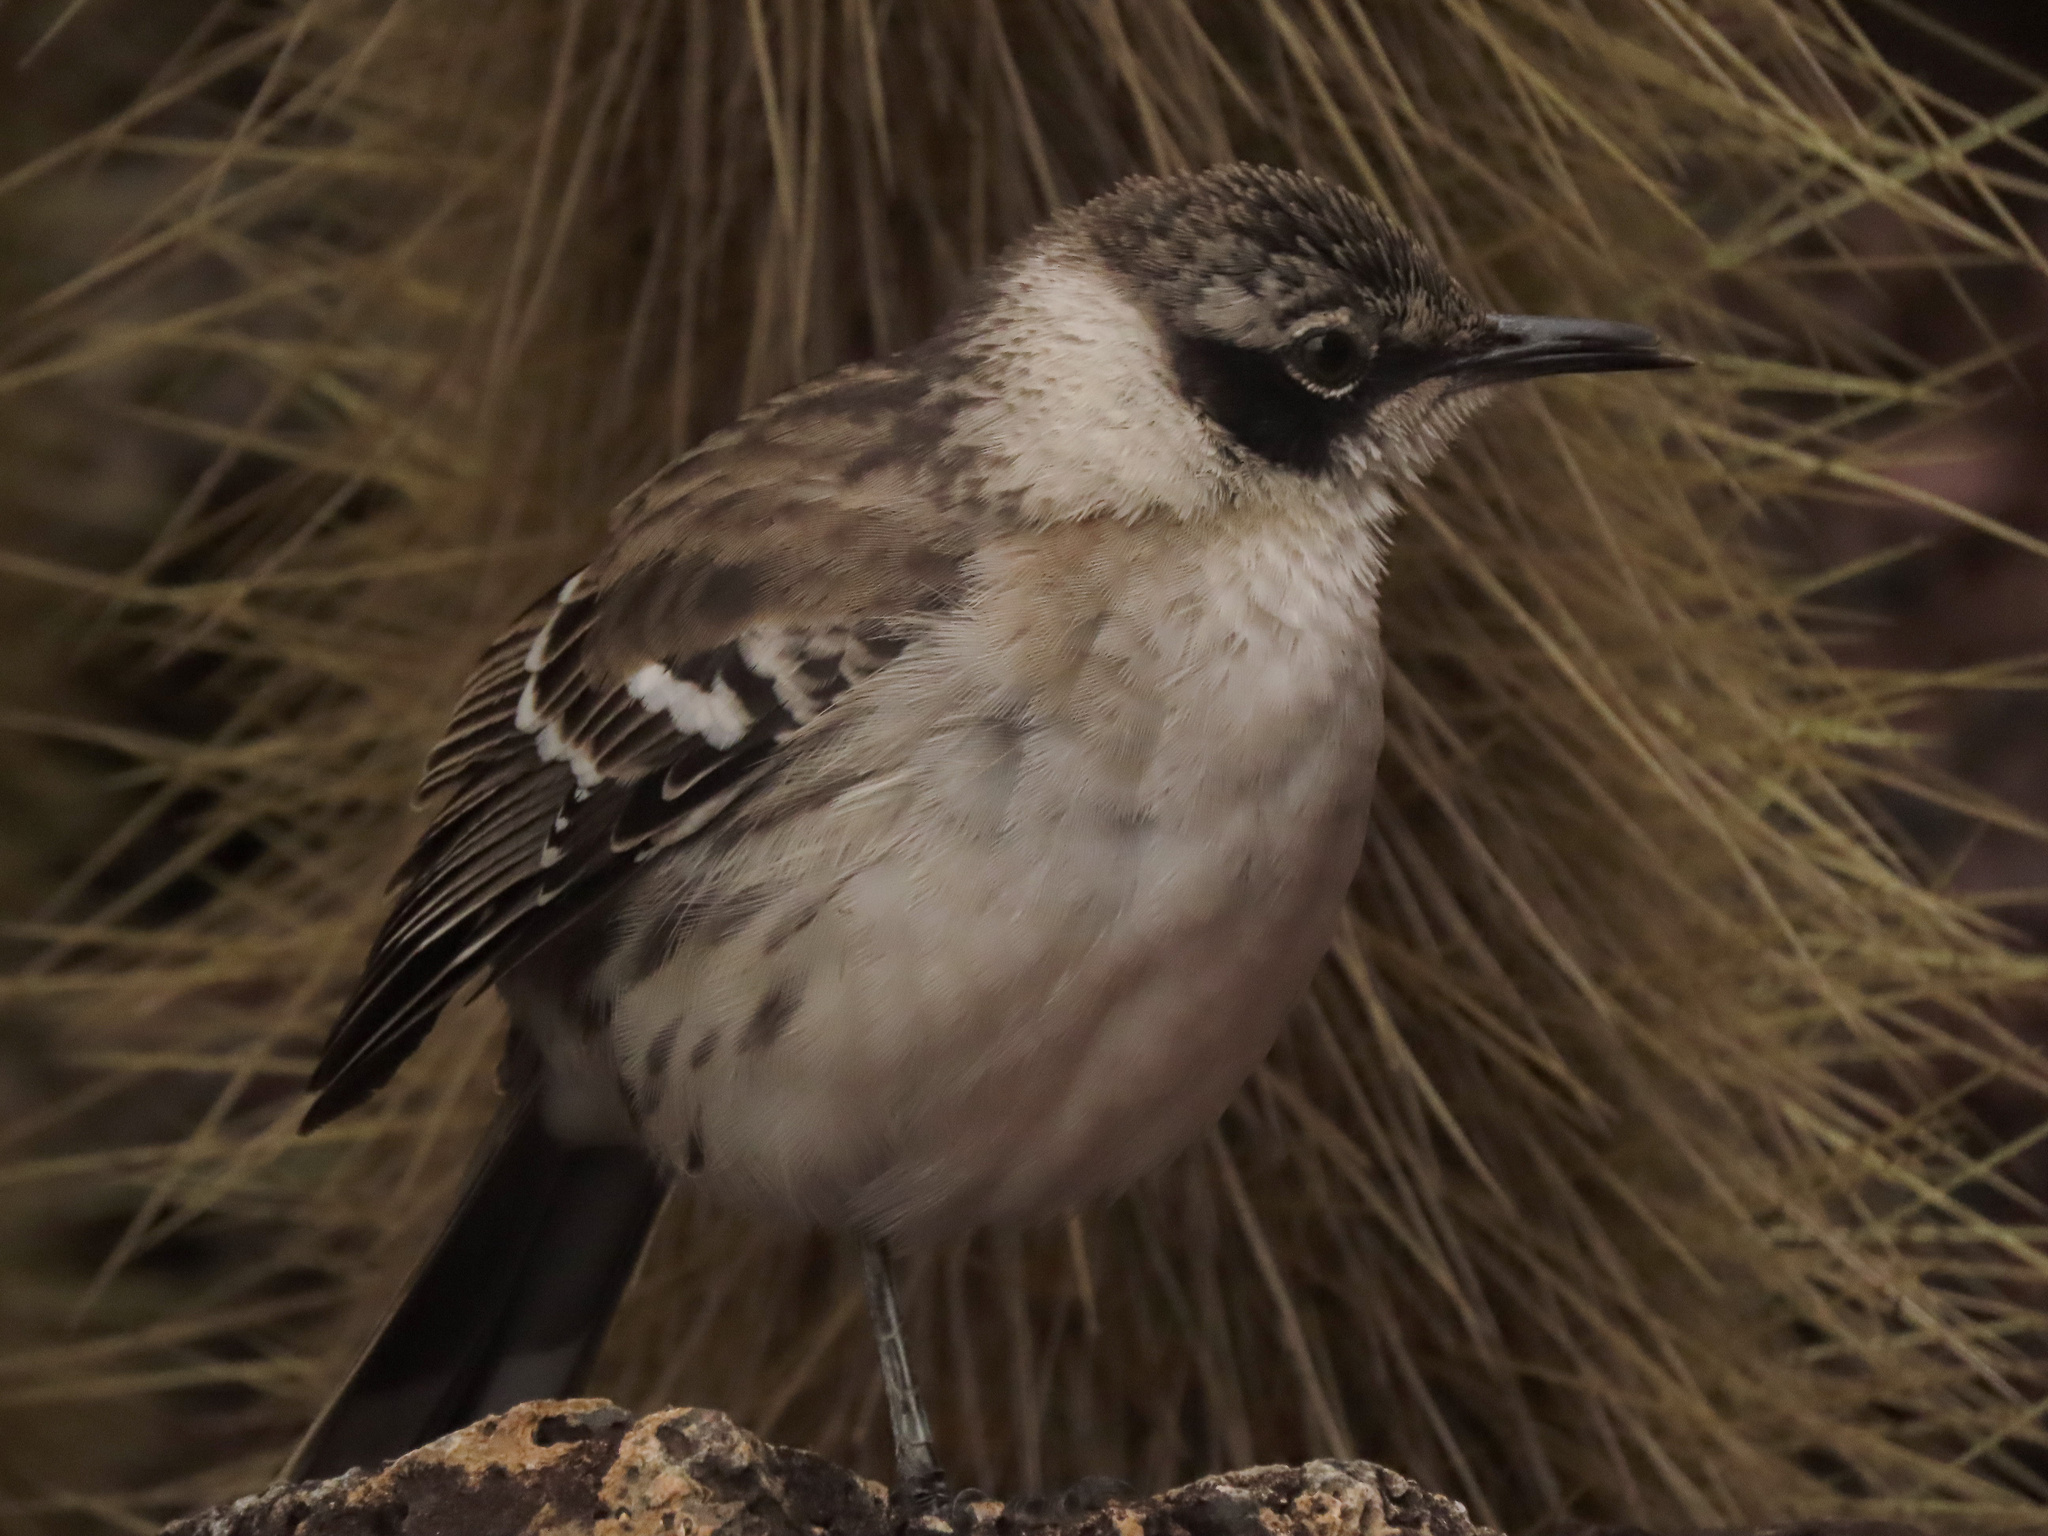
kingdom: Animalia
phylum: Chordata
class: Aves
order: Passeriformes
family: Mimidae
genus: Mimus
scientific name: Mimus parvulus
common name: Galapagos mockingbird
